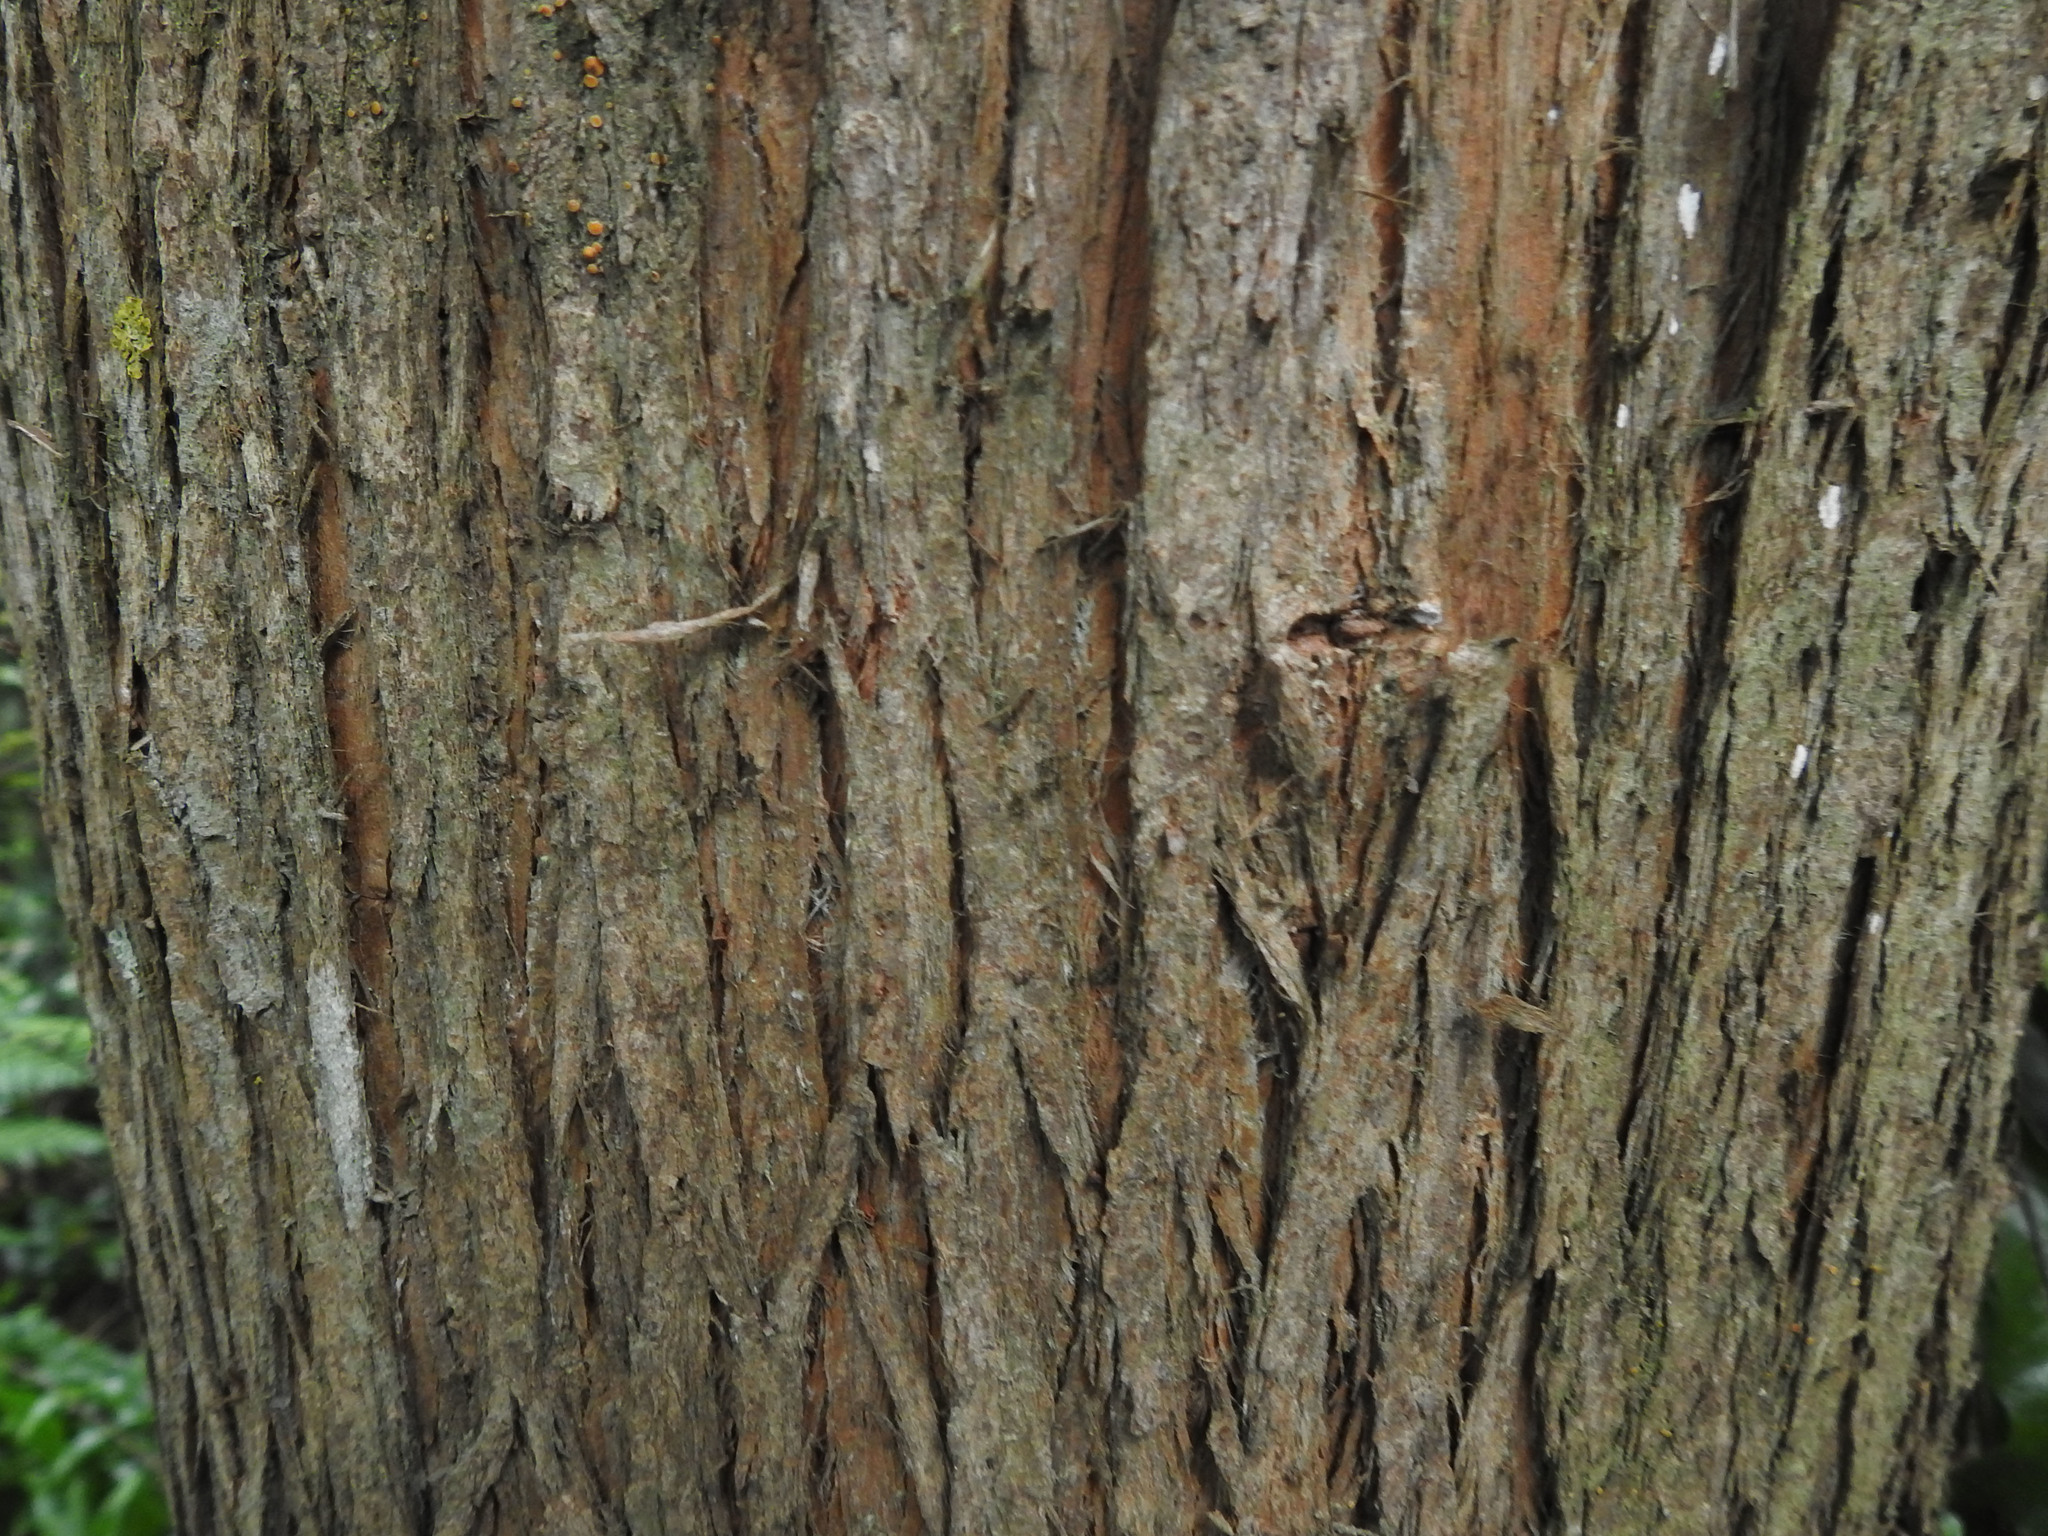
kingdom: Plantae
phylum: Tracheophyta
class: Pinopsida
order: Pinales
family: Podocarpaceae
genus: Podocarpus
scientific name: Podocarpus totara
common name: Totara
